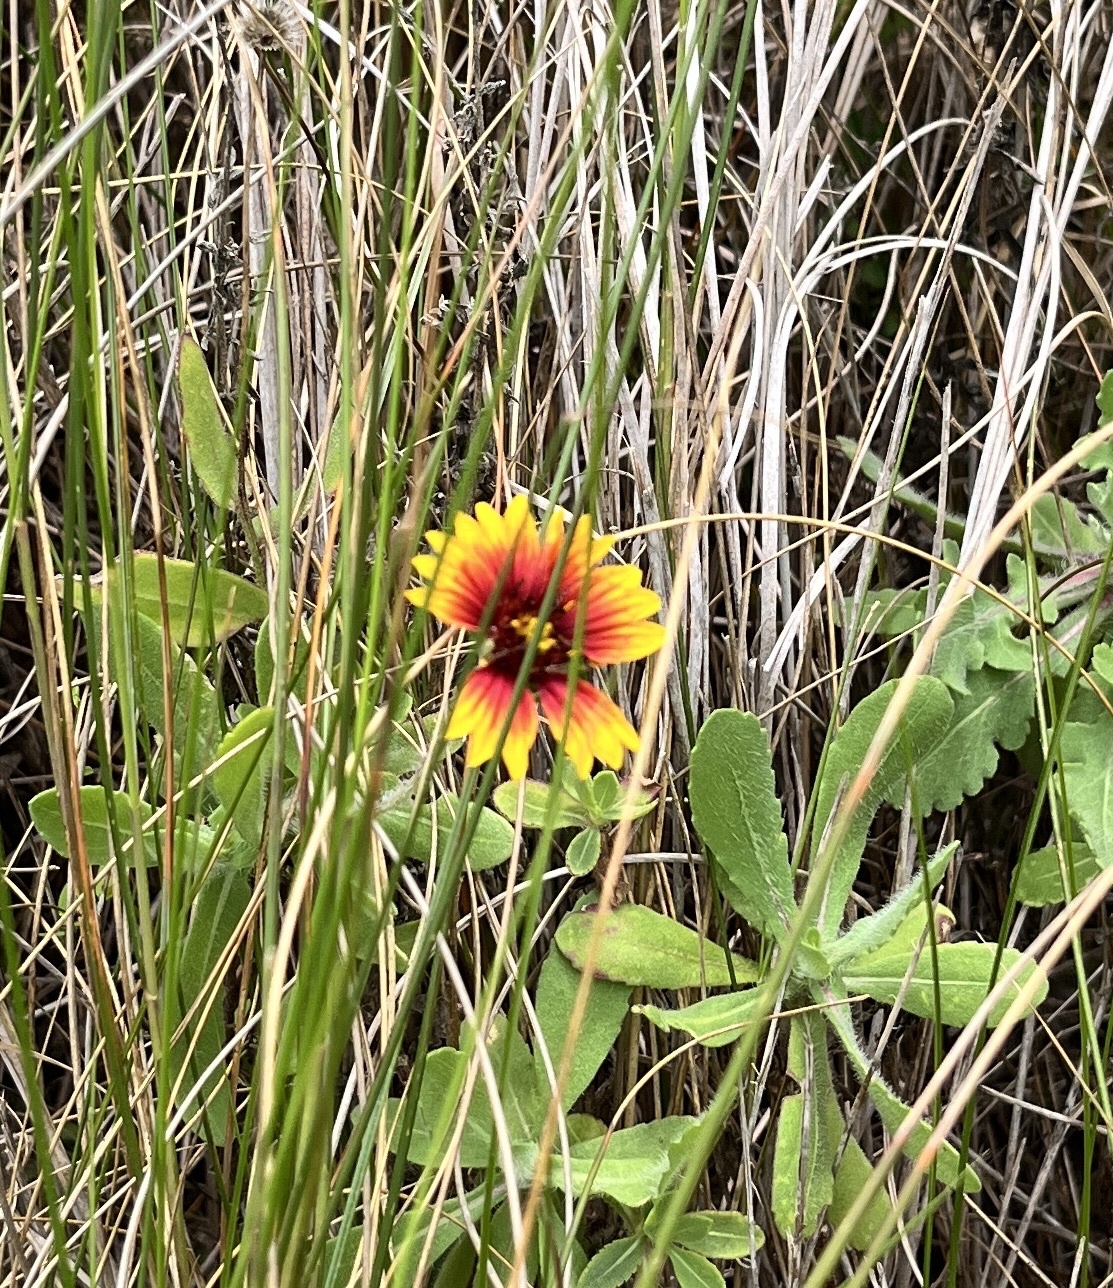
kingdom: Plantae
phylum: Tracheophyta
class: Magnoliopsida
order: Asterales
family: Asteraceae
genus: Gaillardia
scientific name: Gaillardia pulchella
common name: Firewheel
